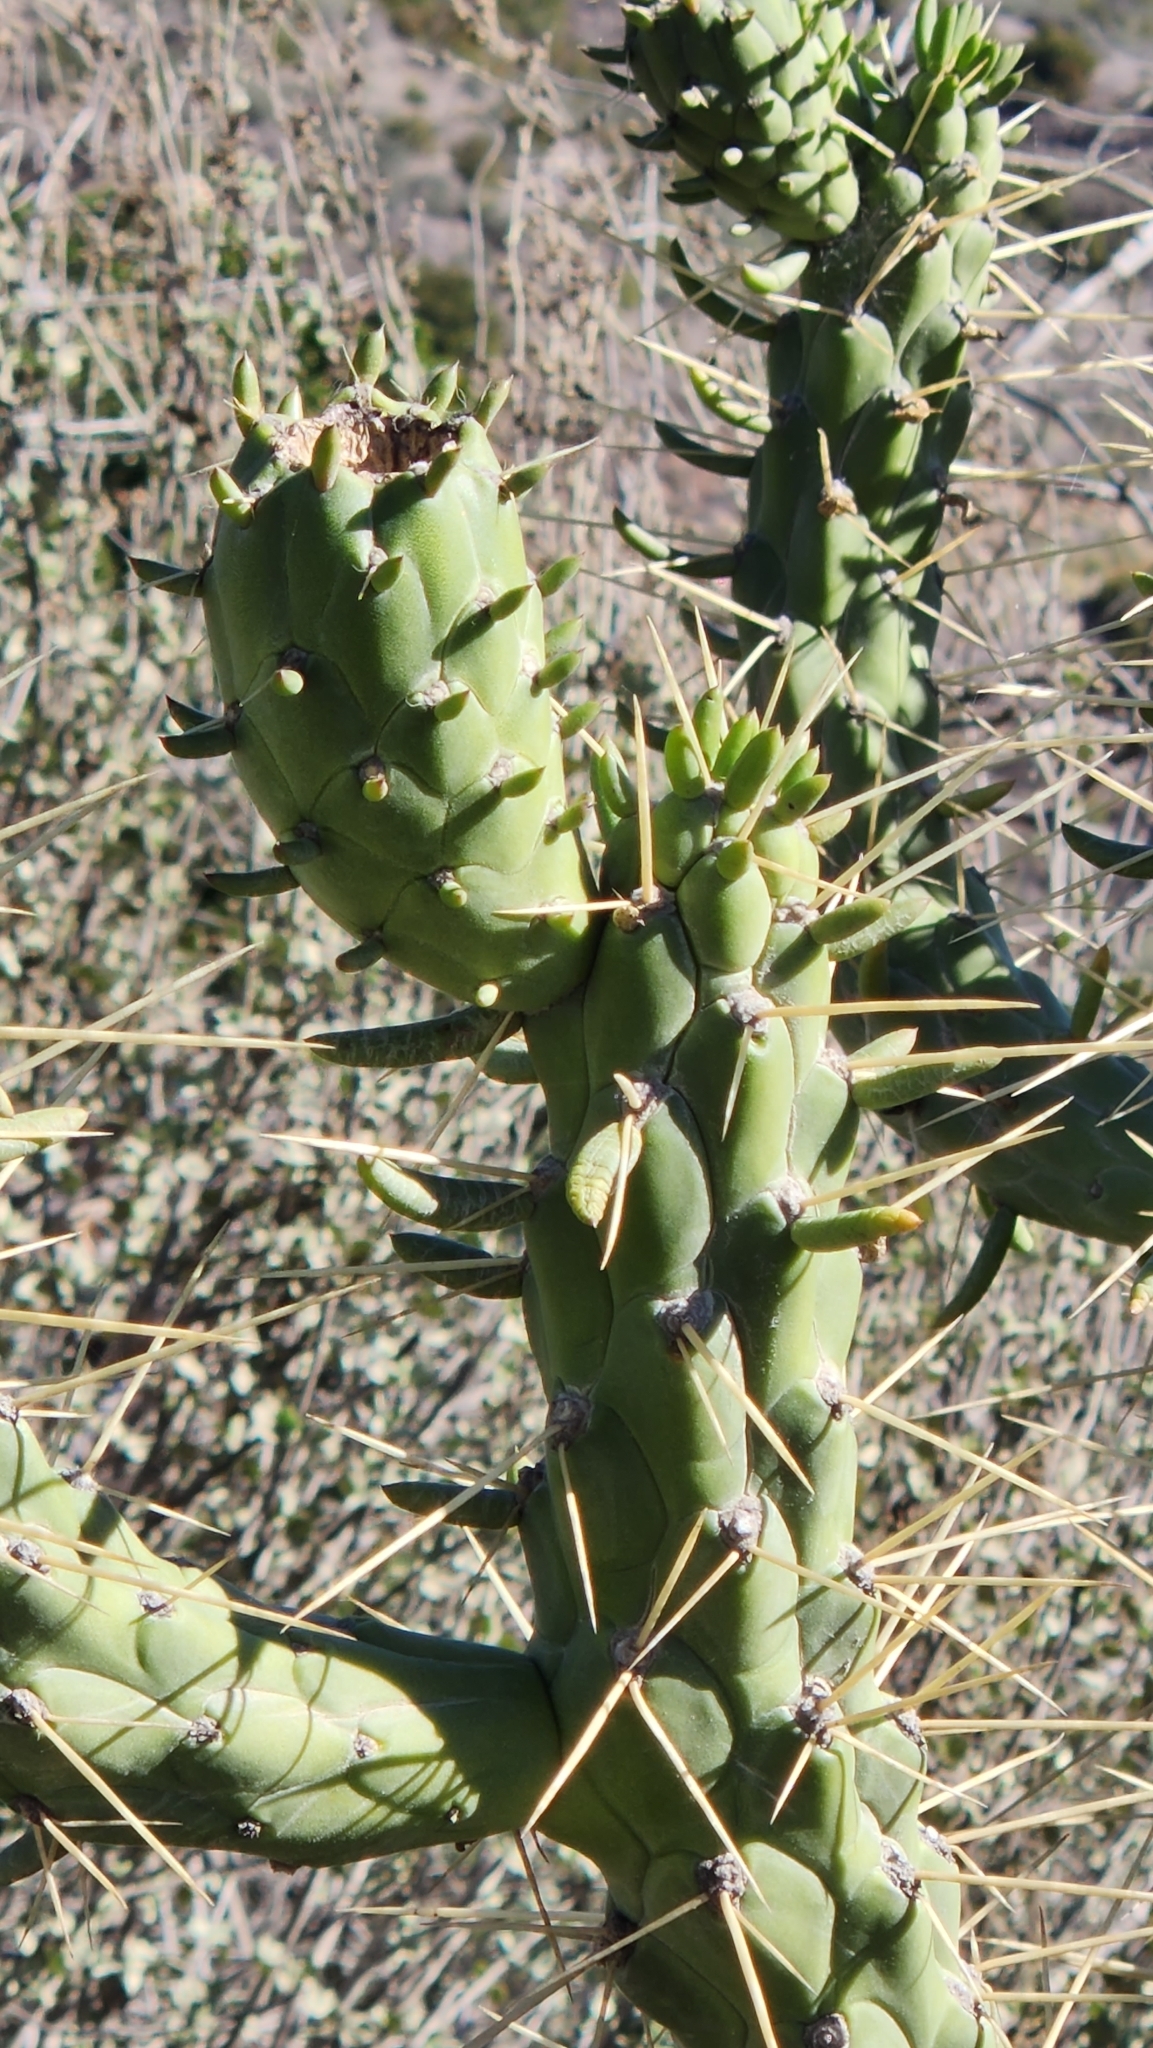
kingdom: Plantae
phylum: Tracheophyta
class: Magnoliopsida
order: Caryophyllales
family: Cactaceae
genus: Austrocylindropuntia
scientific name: Austrocylindropuntia subulata
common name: Eve's needle cactus
